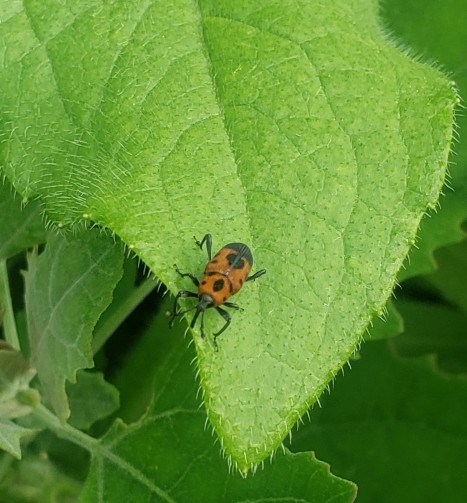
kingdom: Animalia
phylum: Arthropoda
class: Insecta
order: Coleoptera
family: Dryophthoridae
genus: Rhodobaenus
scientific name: Rhodobaenus quinquepunctatus
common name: Cocklebur weevil
